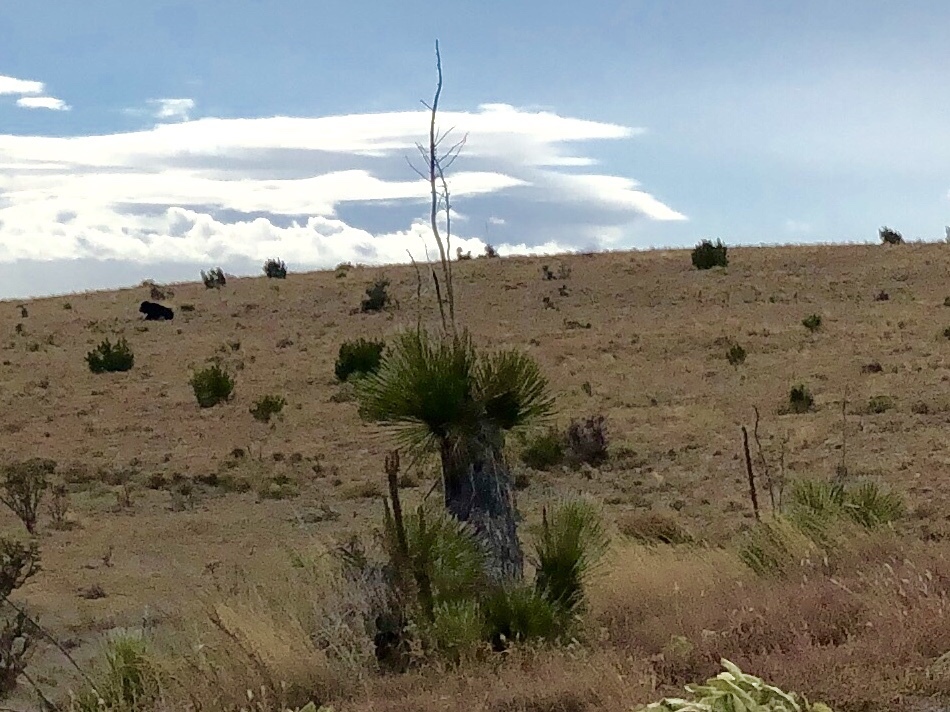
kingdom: Plantae
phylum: Tracheophyta
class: Liliopsida
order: Asparagales
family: Asparagaceae
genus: Yucca
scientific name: Yucca elata
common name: Palmella
